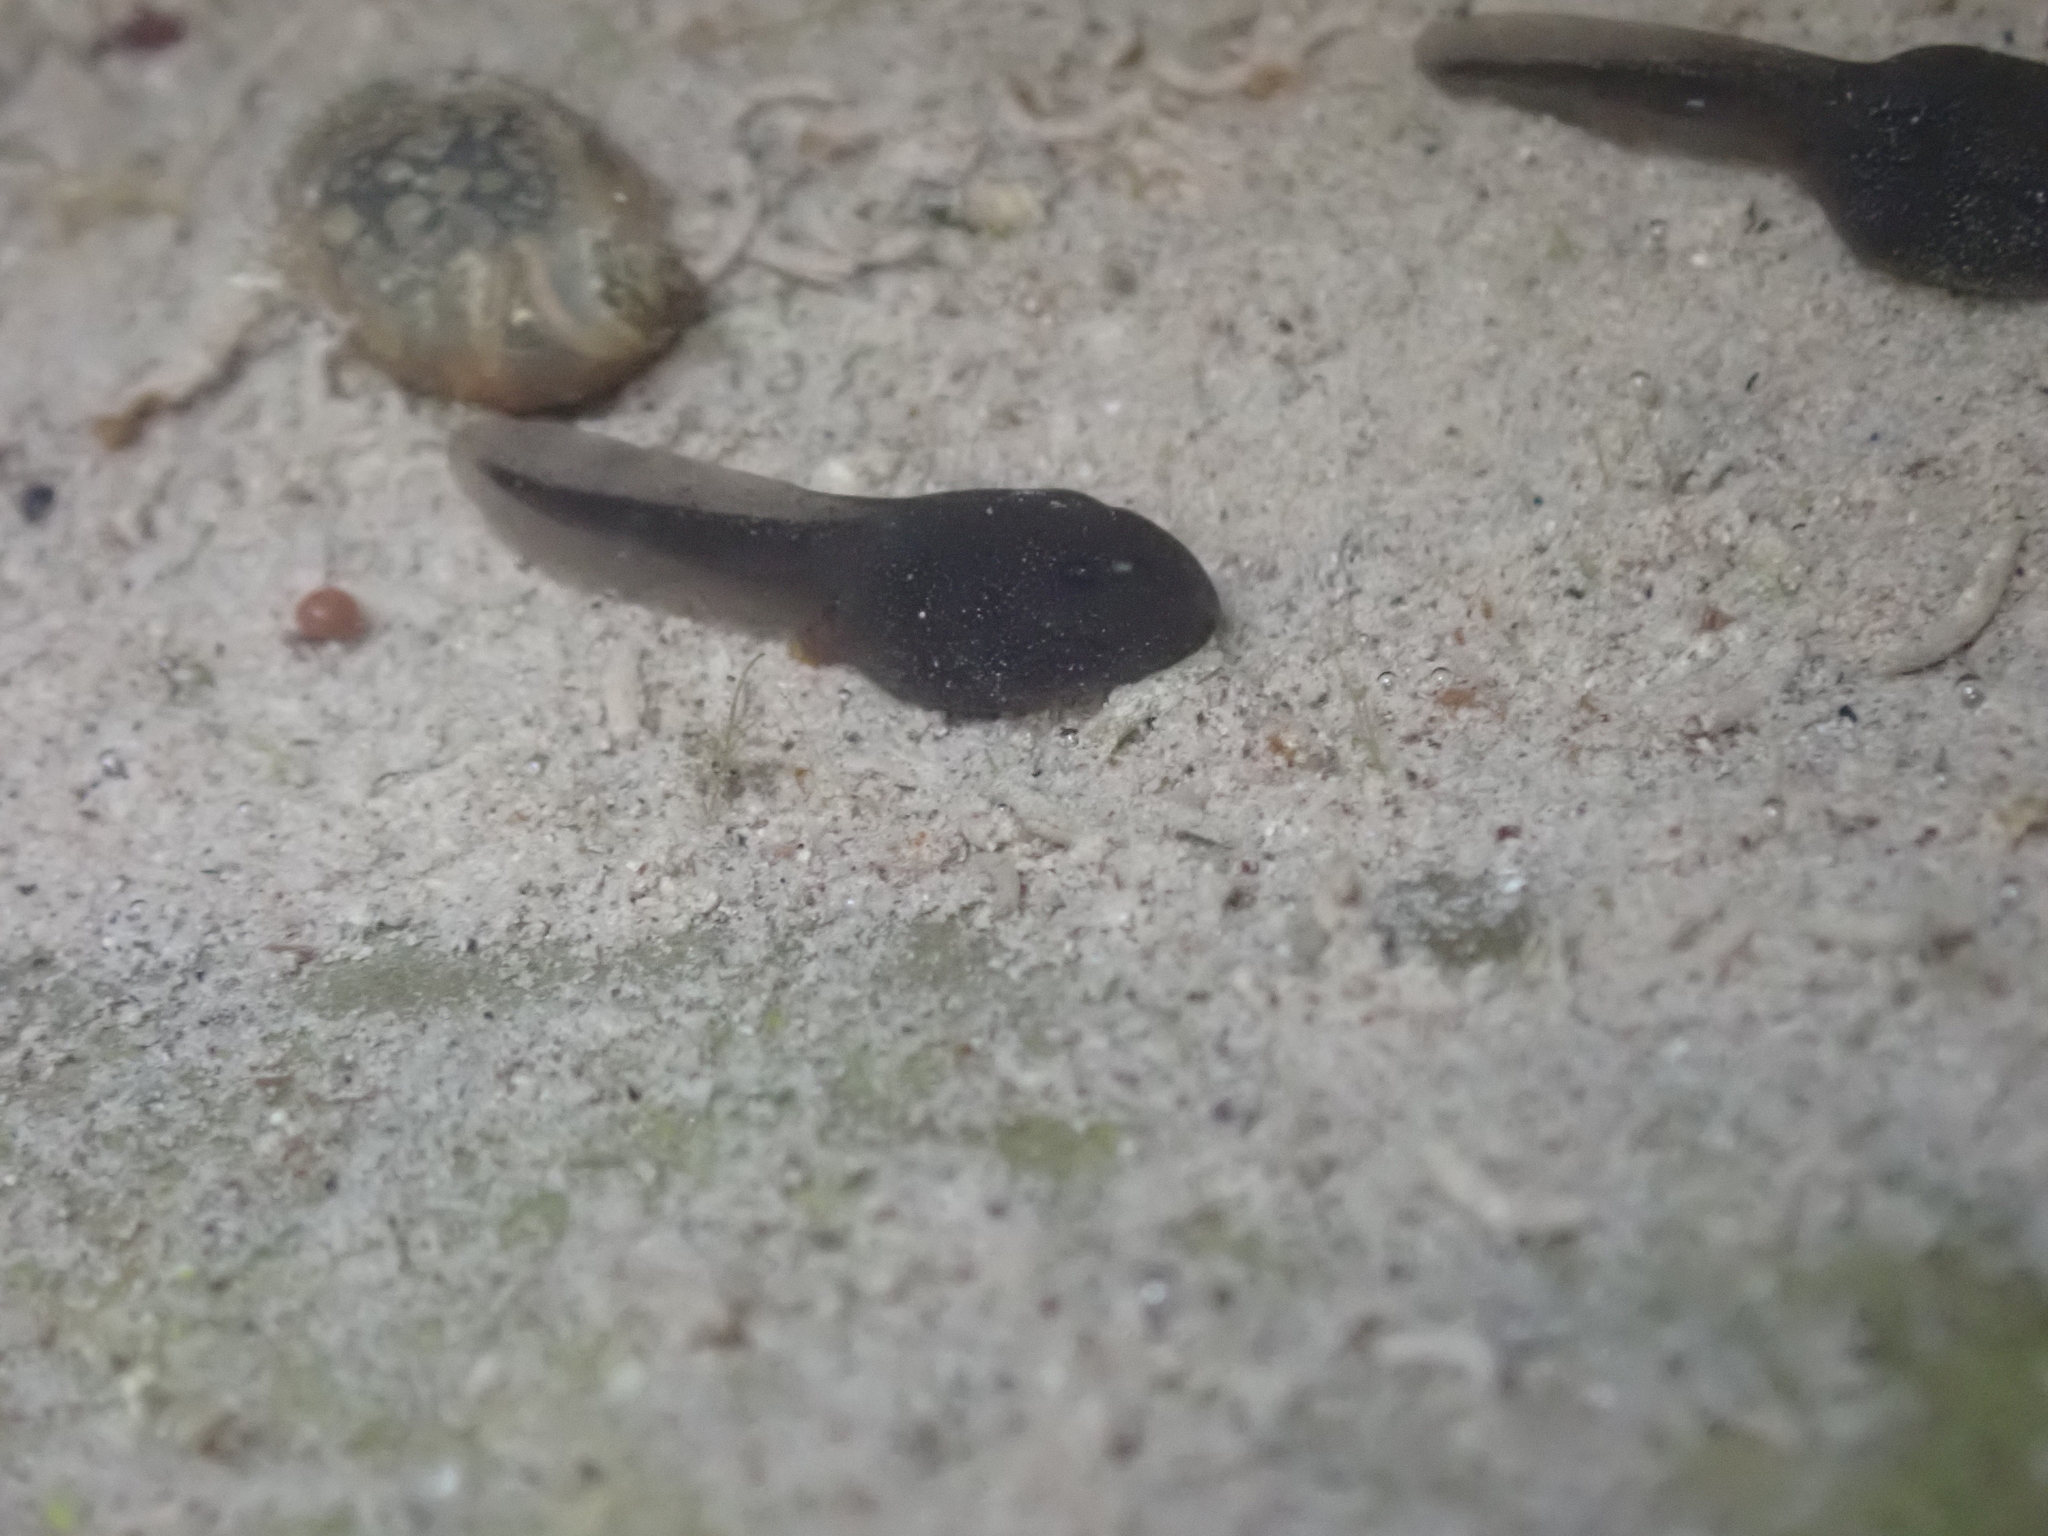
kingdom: Animalia
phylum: Chordata
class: Amphibia
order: Anura
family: Bufonidae
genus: Bufo
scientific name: Bufo spinosus
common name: Western common toad
